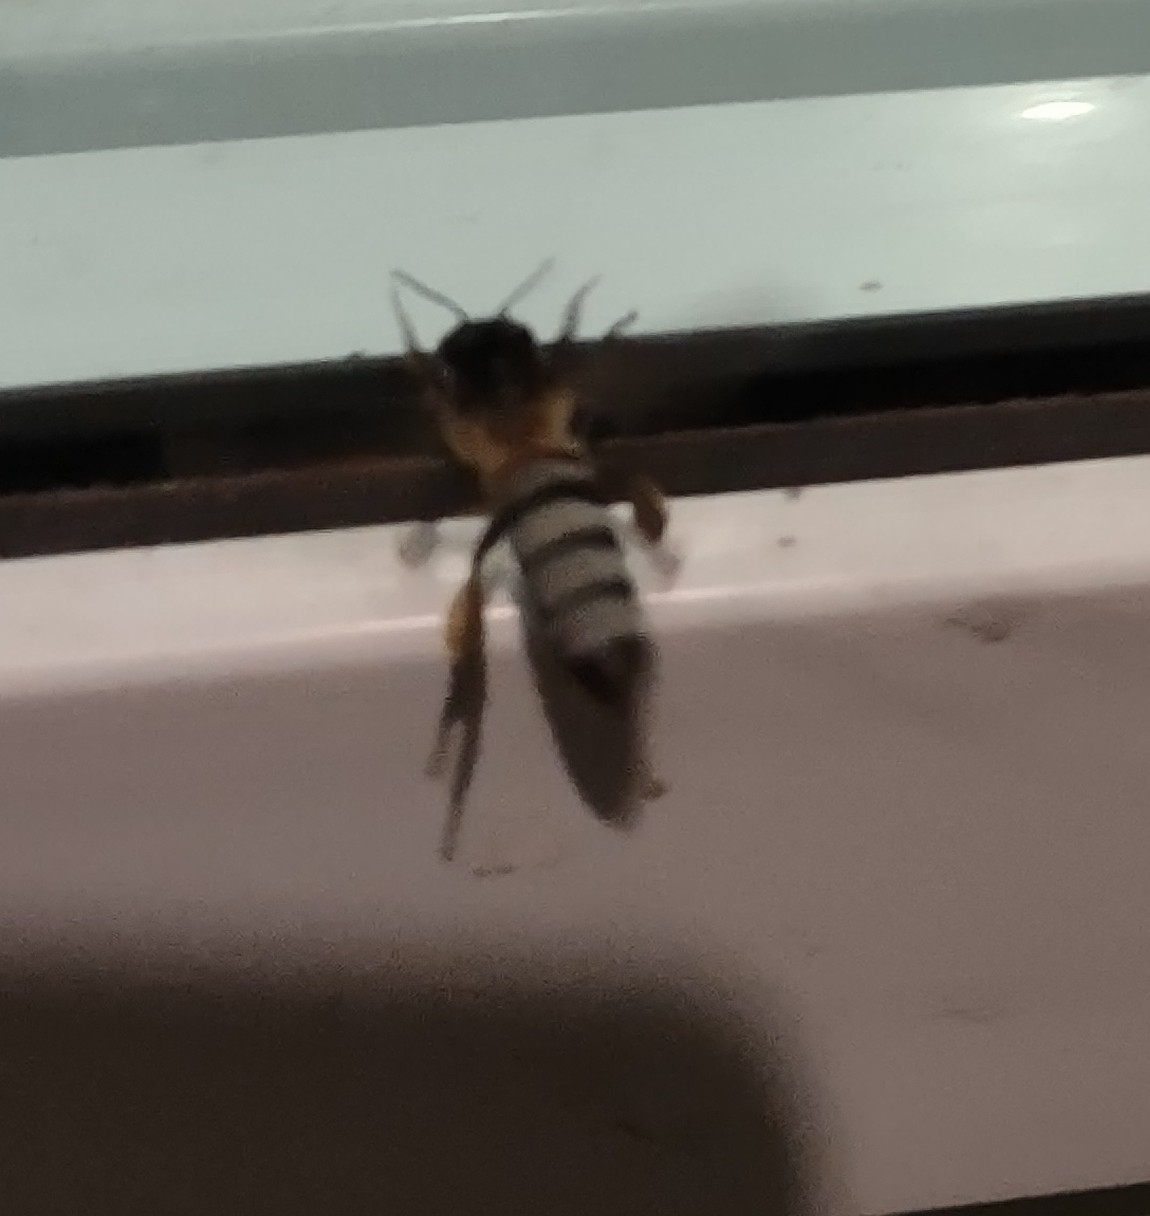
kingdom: Animalia
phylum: Arthropoda
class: Insecta
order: Hymenoptera
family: Apidae
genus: Apis
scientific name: Apis dorsata
